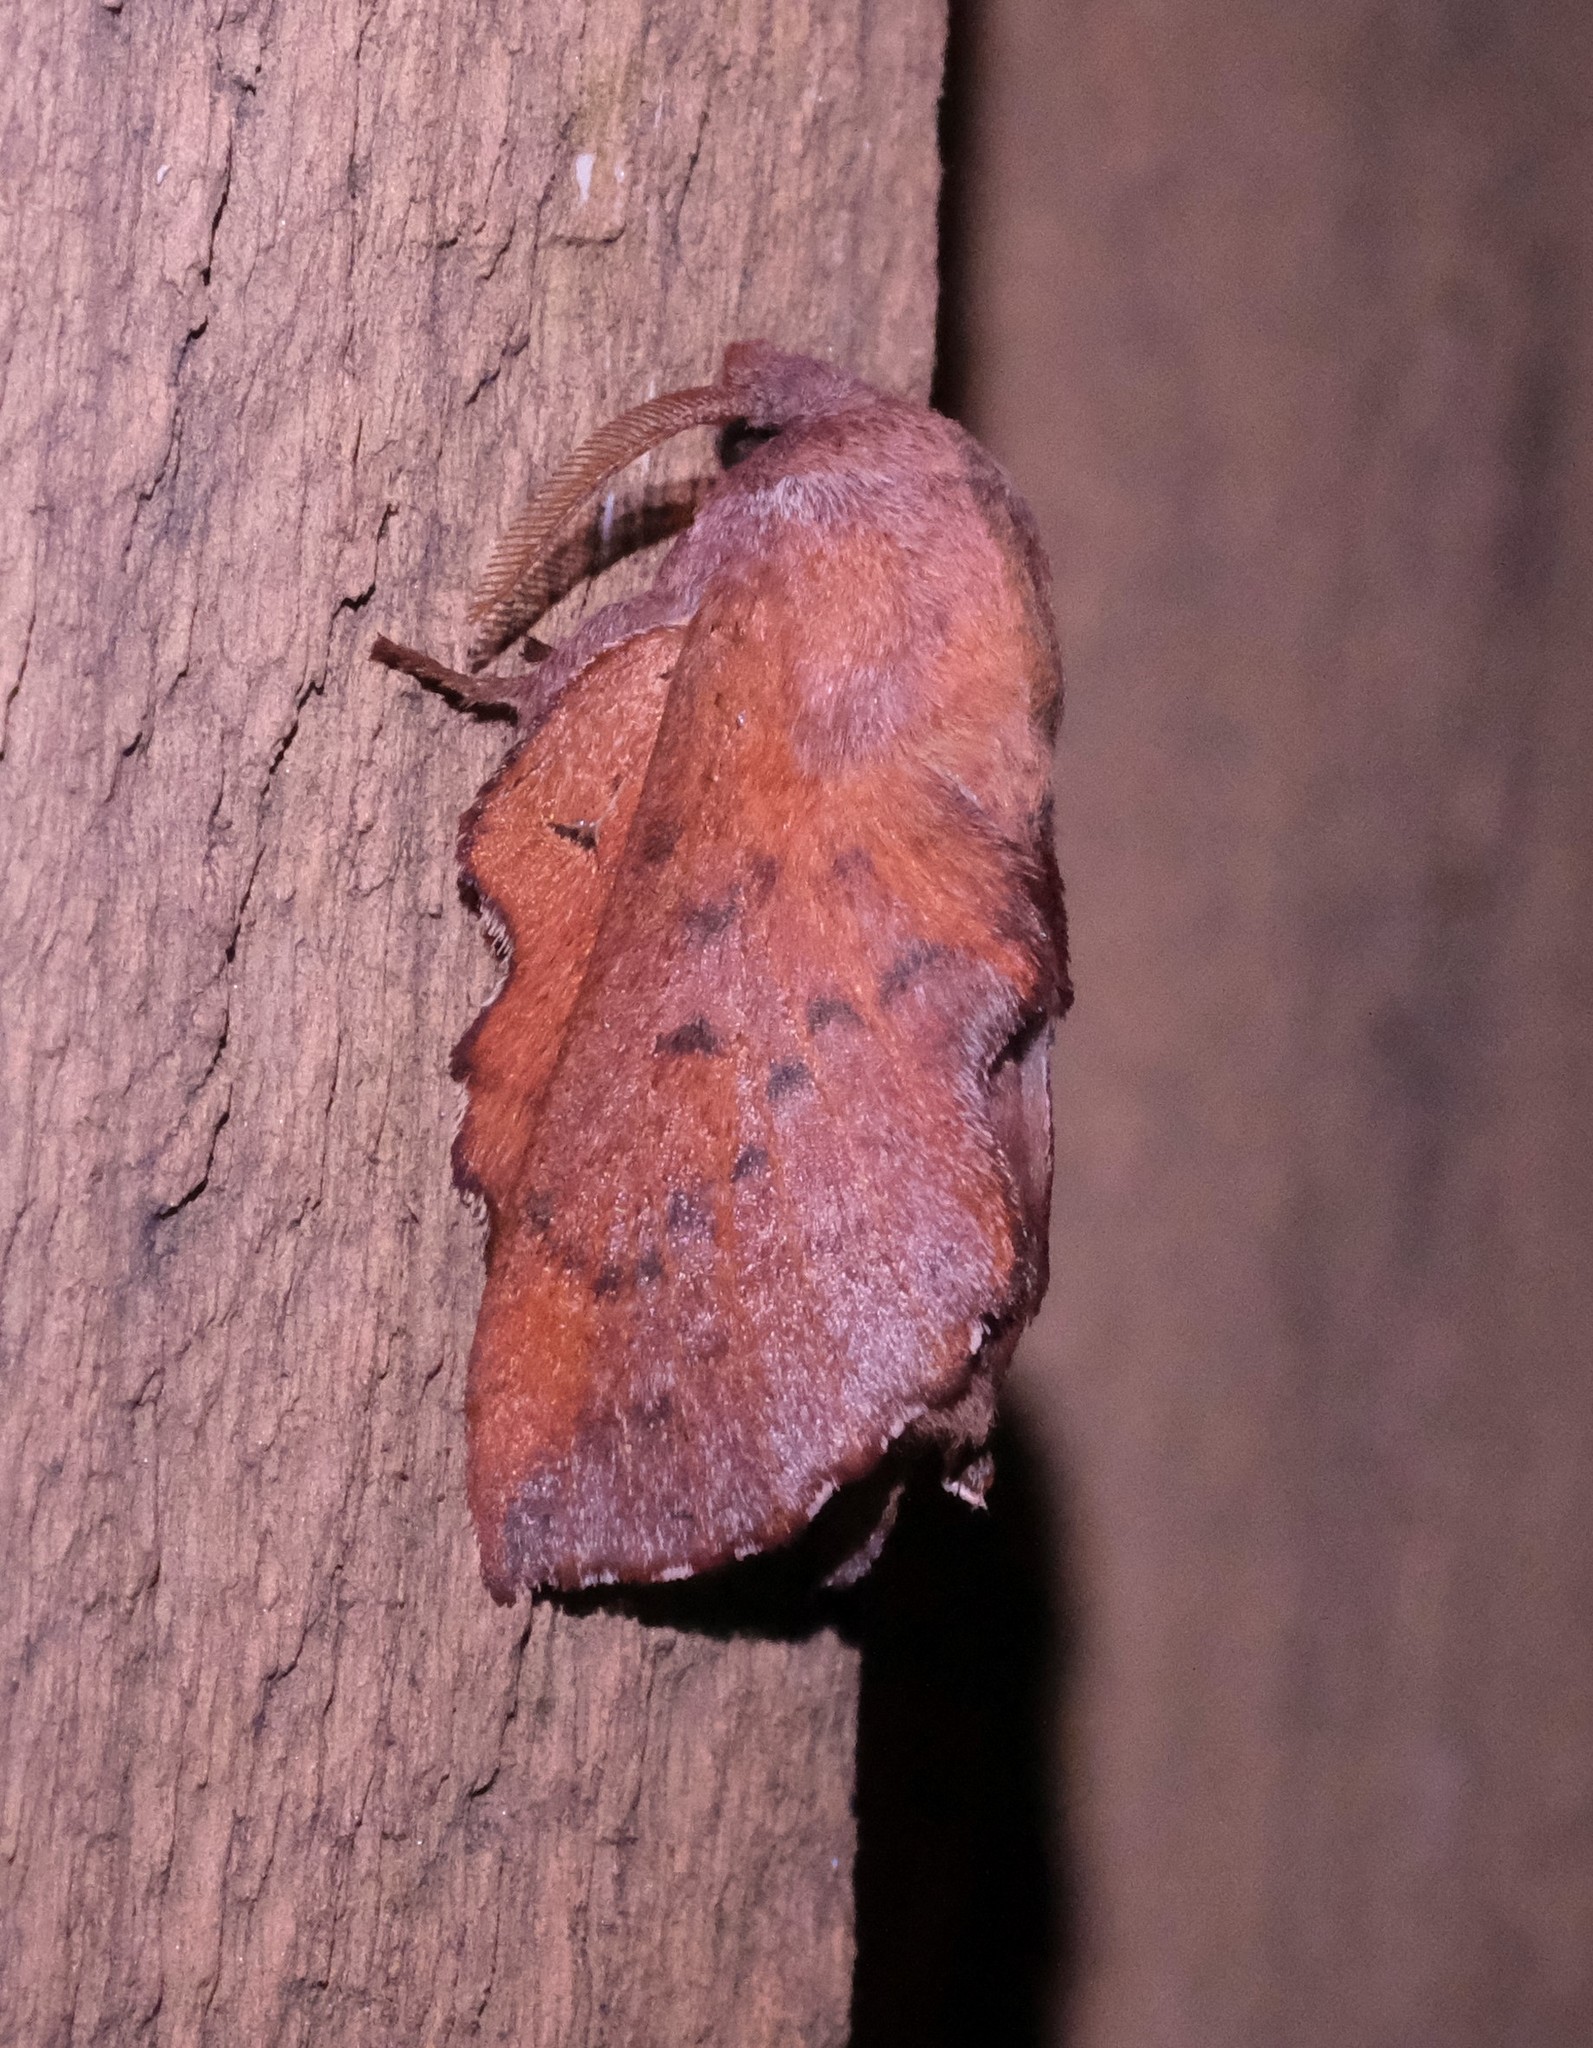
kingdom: Animalia
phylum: Arthropoda
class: Insecta
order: Lepidoptera
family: Lasiocampidae
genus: Phyllodesma
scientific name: Phyllodesma americana
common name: American lappet moth
